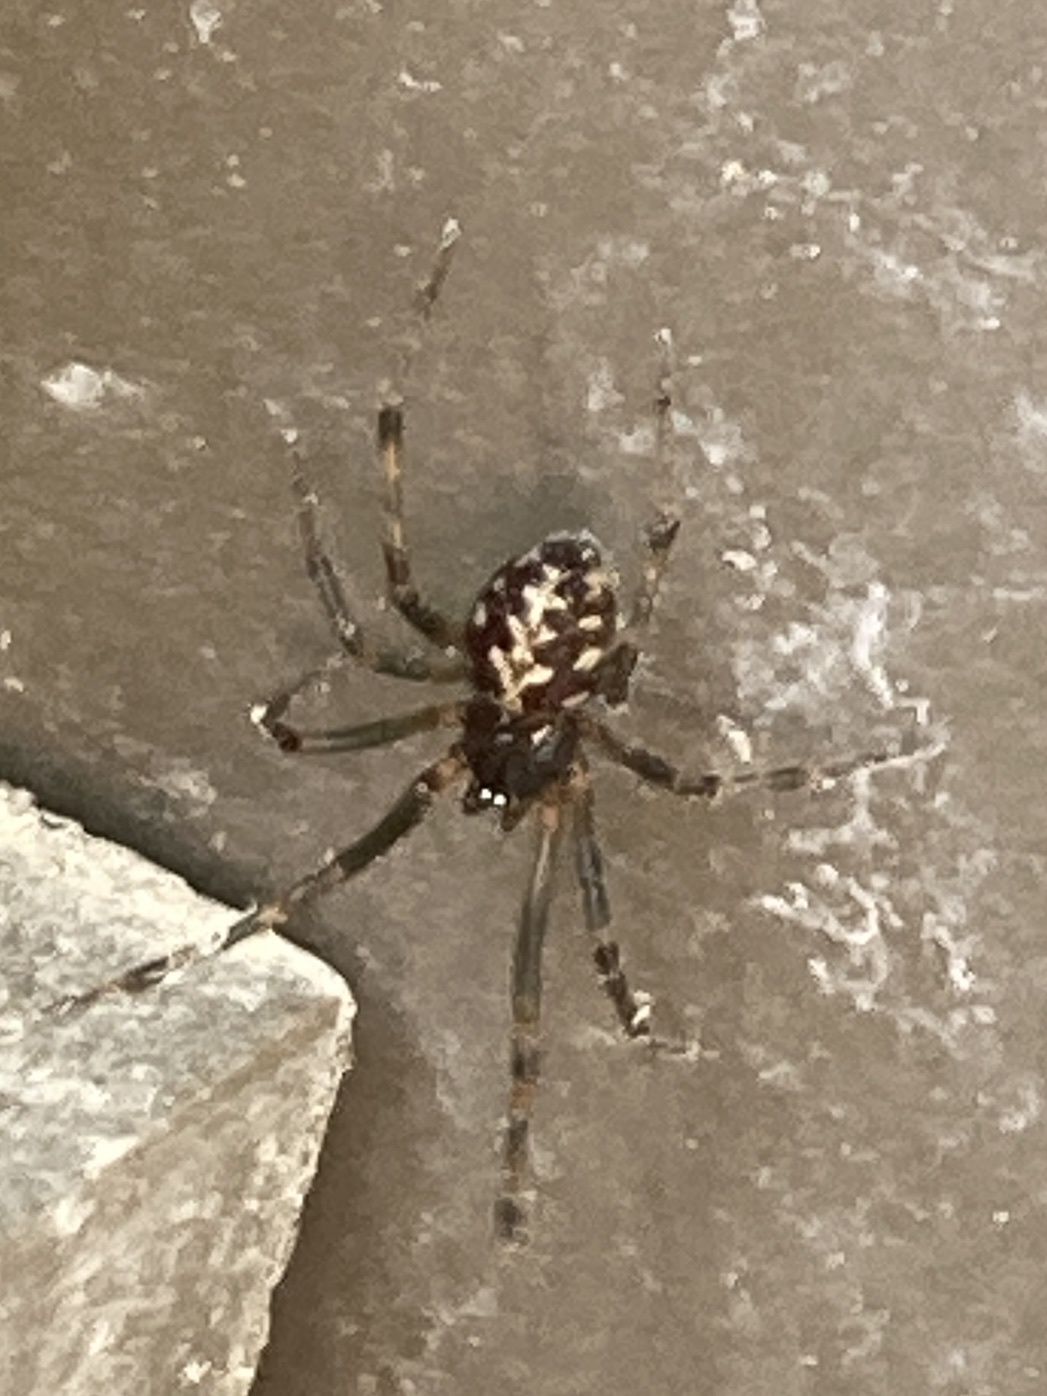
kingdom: Animalia
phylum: Arthropoda
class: Arachnida
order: Araneae
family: Theridiidae
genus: Steatoda
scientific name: Steatoda triangulosa
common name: Triangulate bud spider
